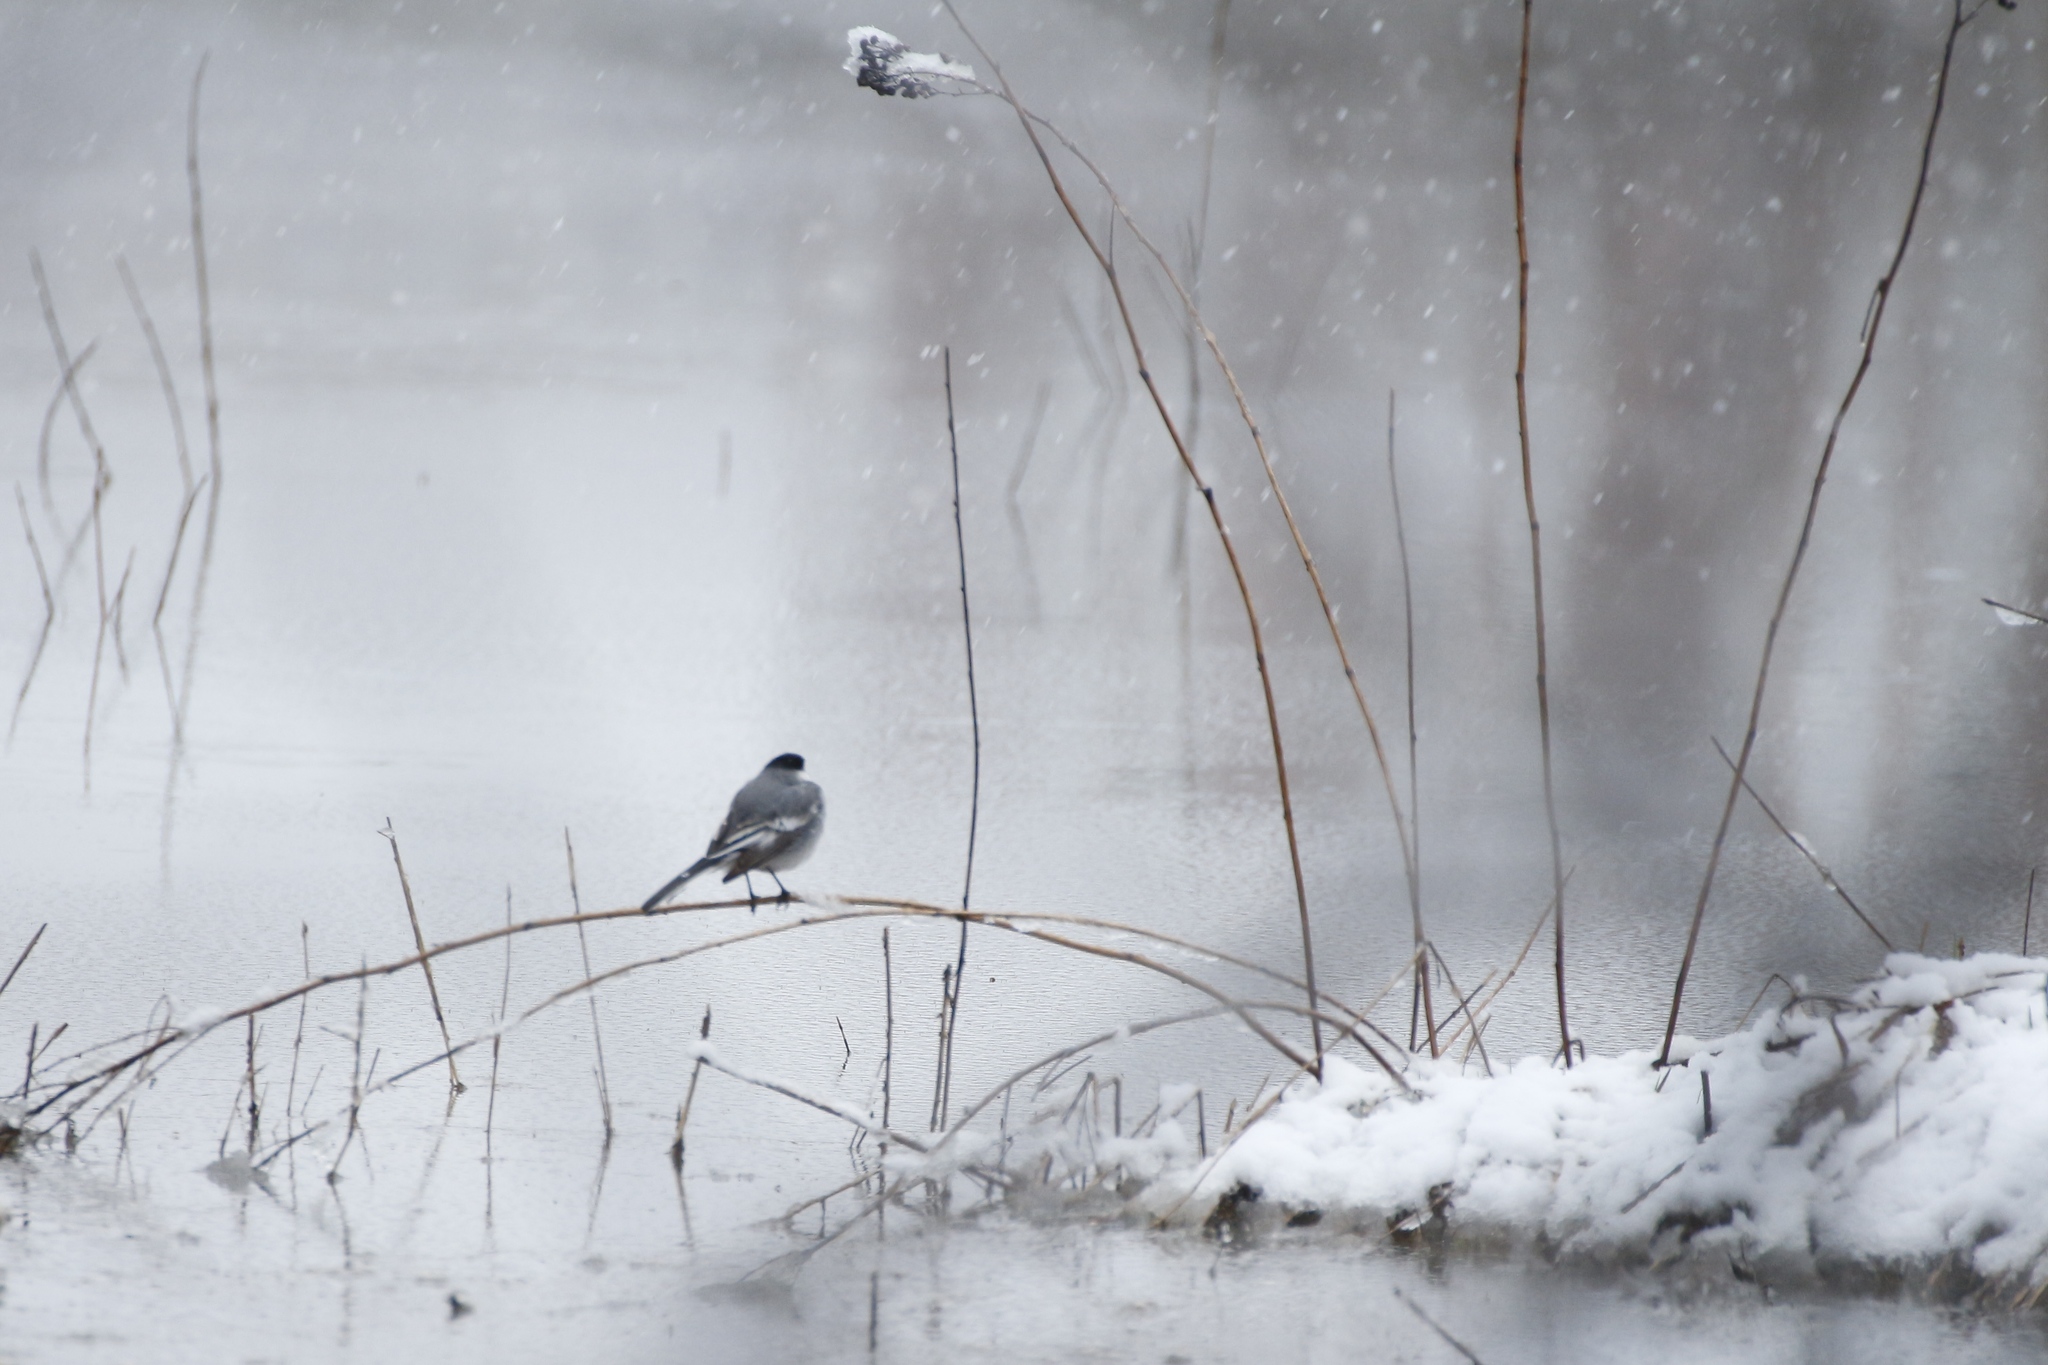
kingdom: Animalia
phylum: Chordata
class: Aves
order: Passeriformes
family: Motacillidae
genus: Motacilla
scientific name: Motacilla alba
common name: White wagtail
